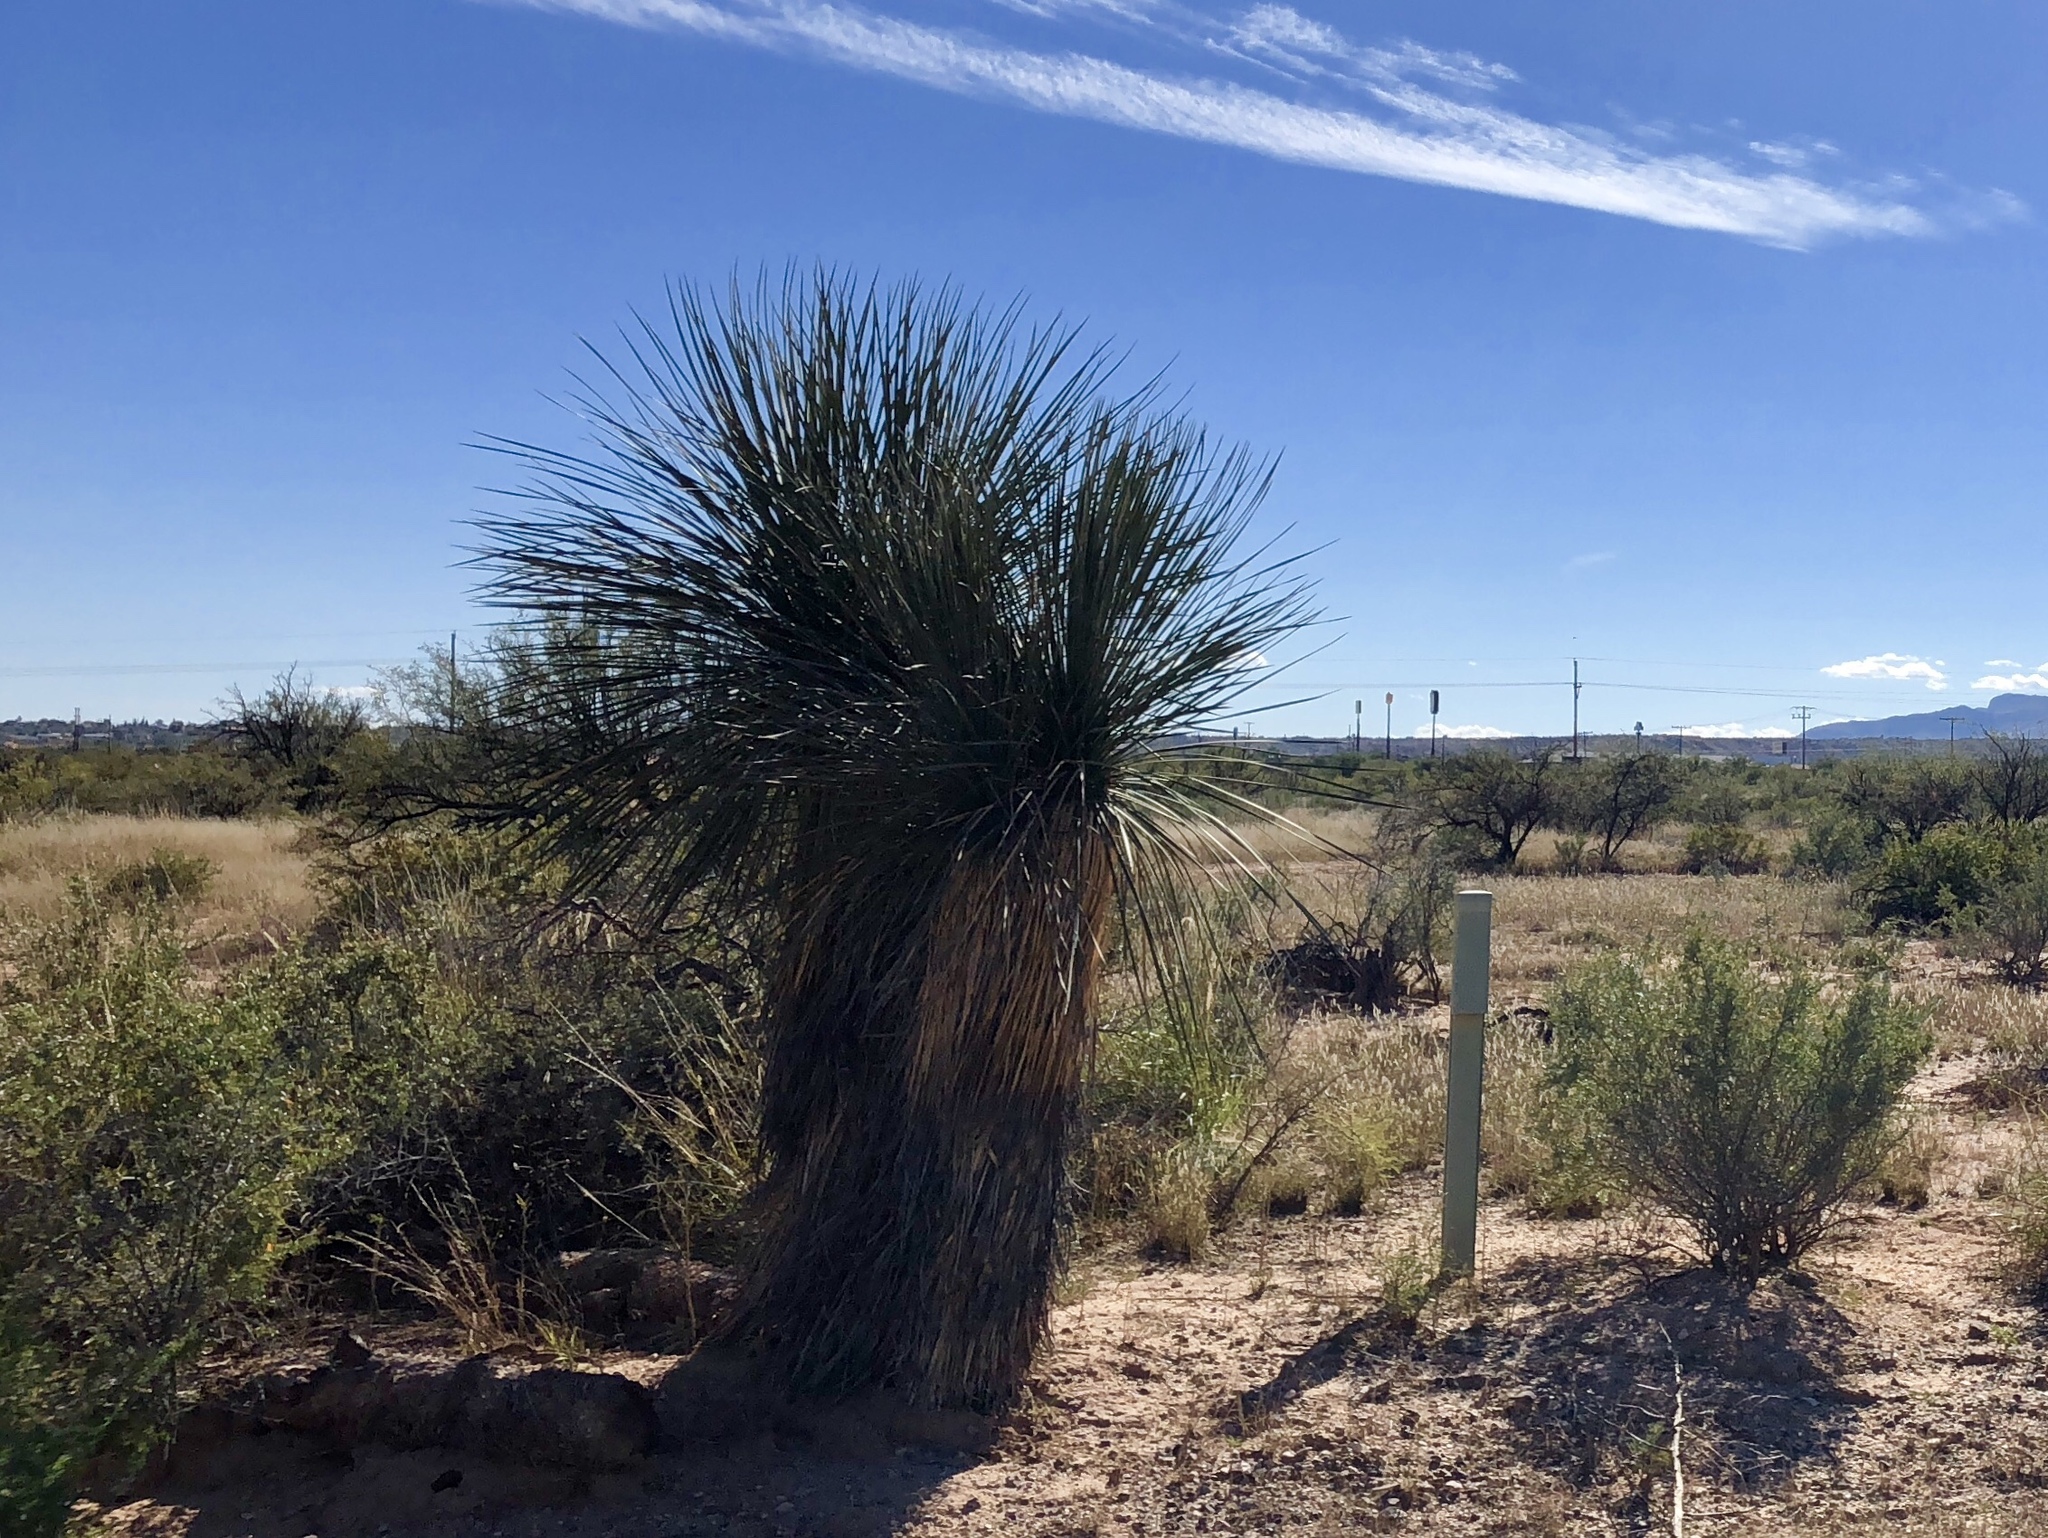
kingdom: Plantae
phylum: Tracheophyta
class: Liliopsida
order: Asparagales
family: Asparagaceae
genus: Yucca
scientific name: Yucca elata
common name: Palmella
